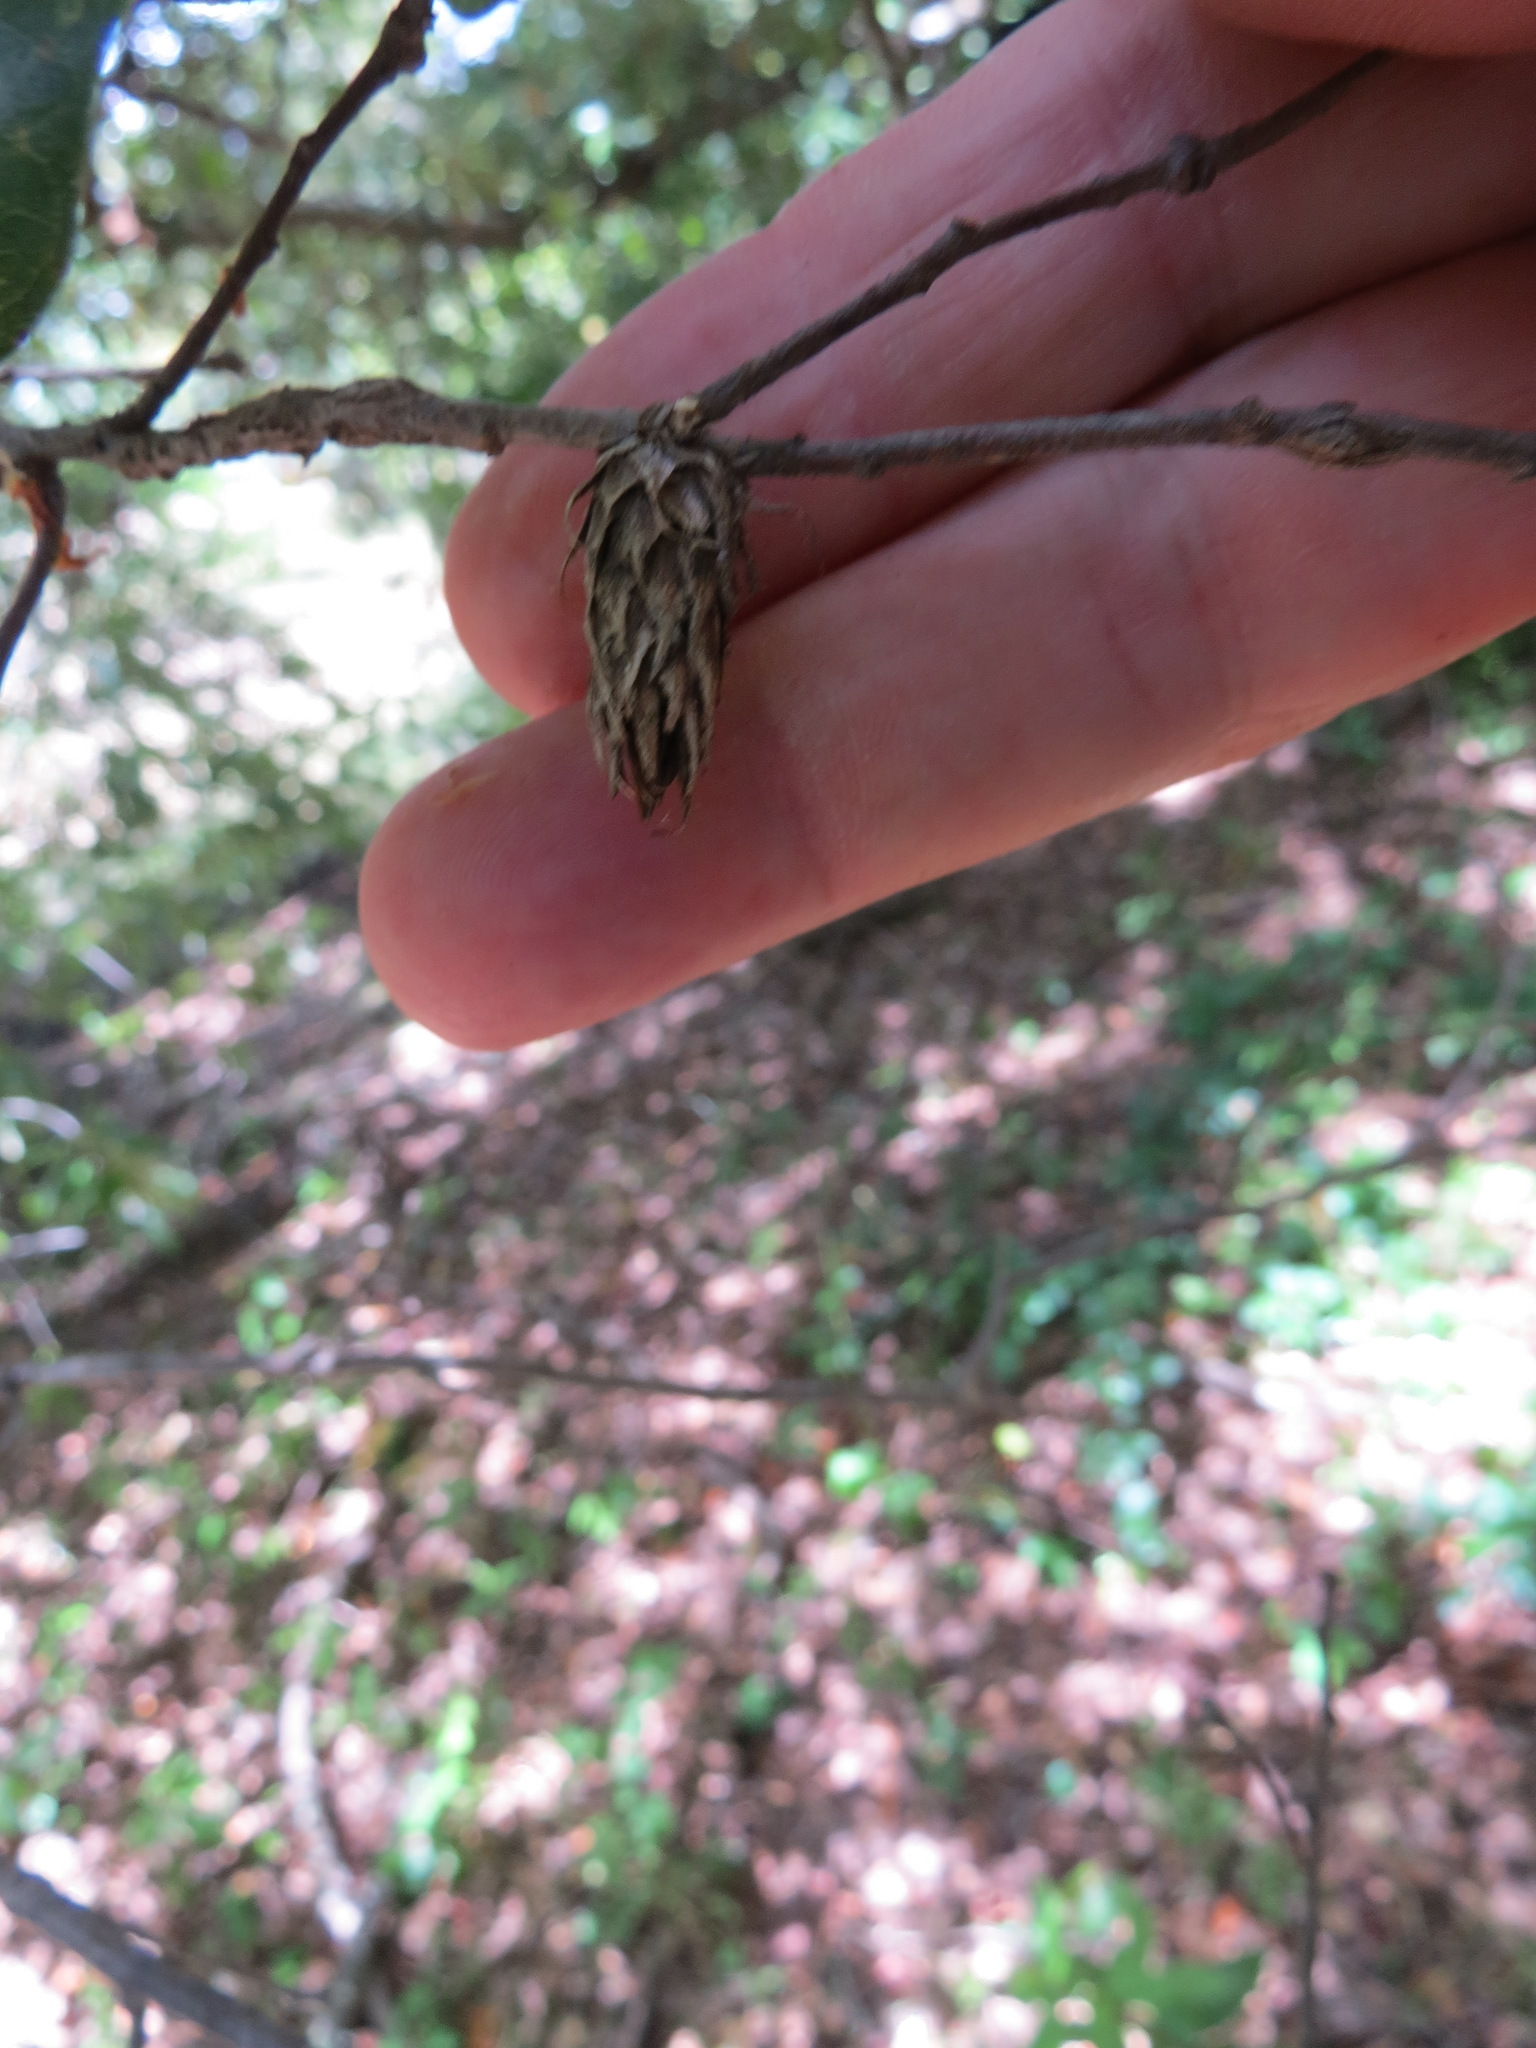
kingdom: Animalia
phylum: Arthropoda
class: Insecta
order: Hymenoptera
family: Cynipidae
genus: Andricus
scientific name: Andricus
